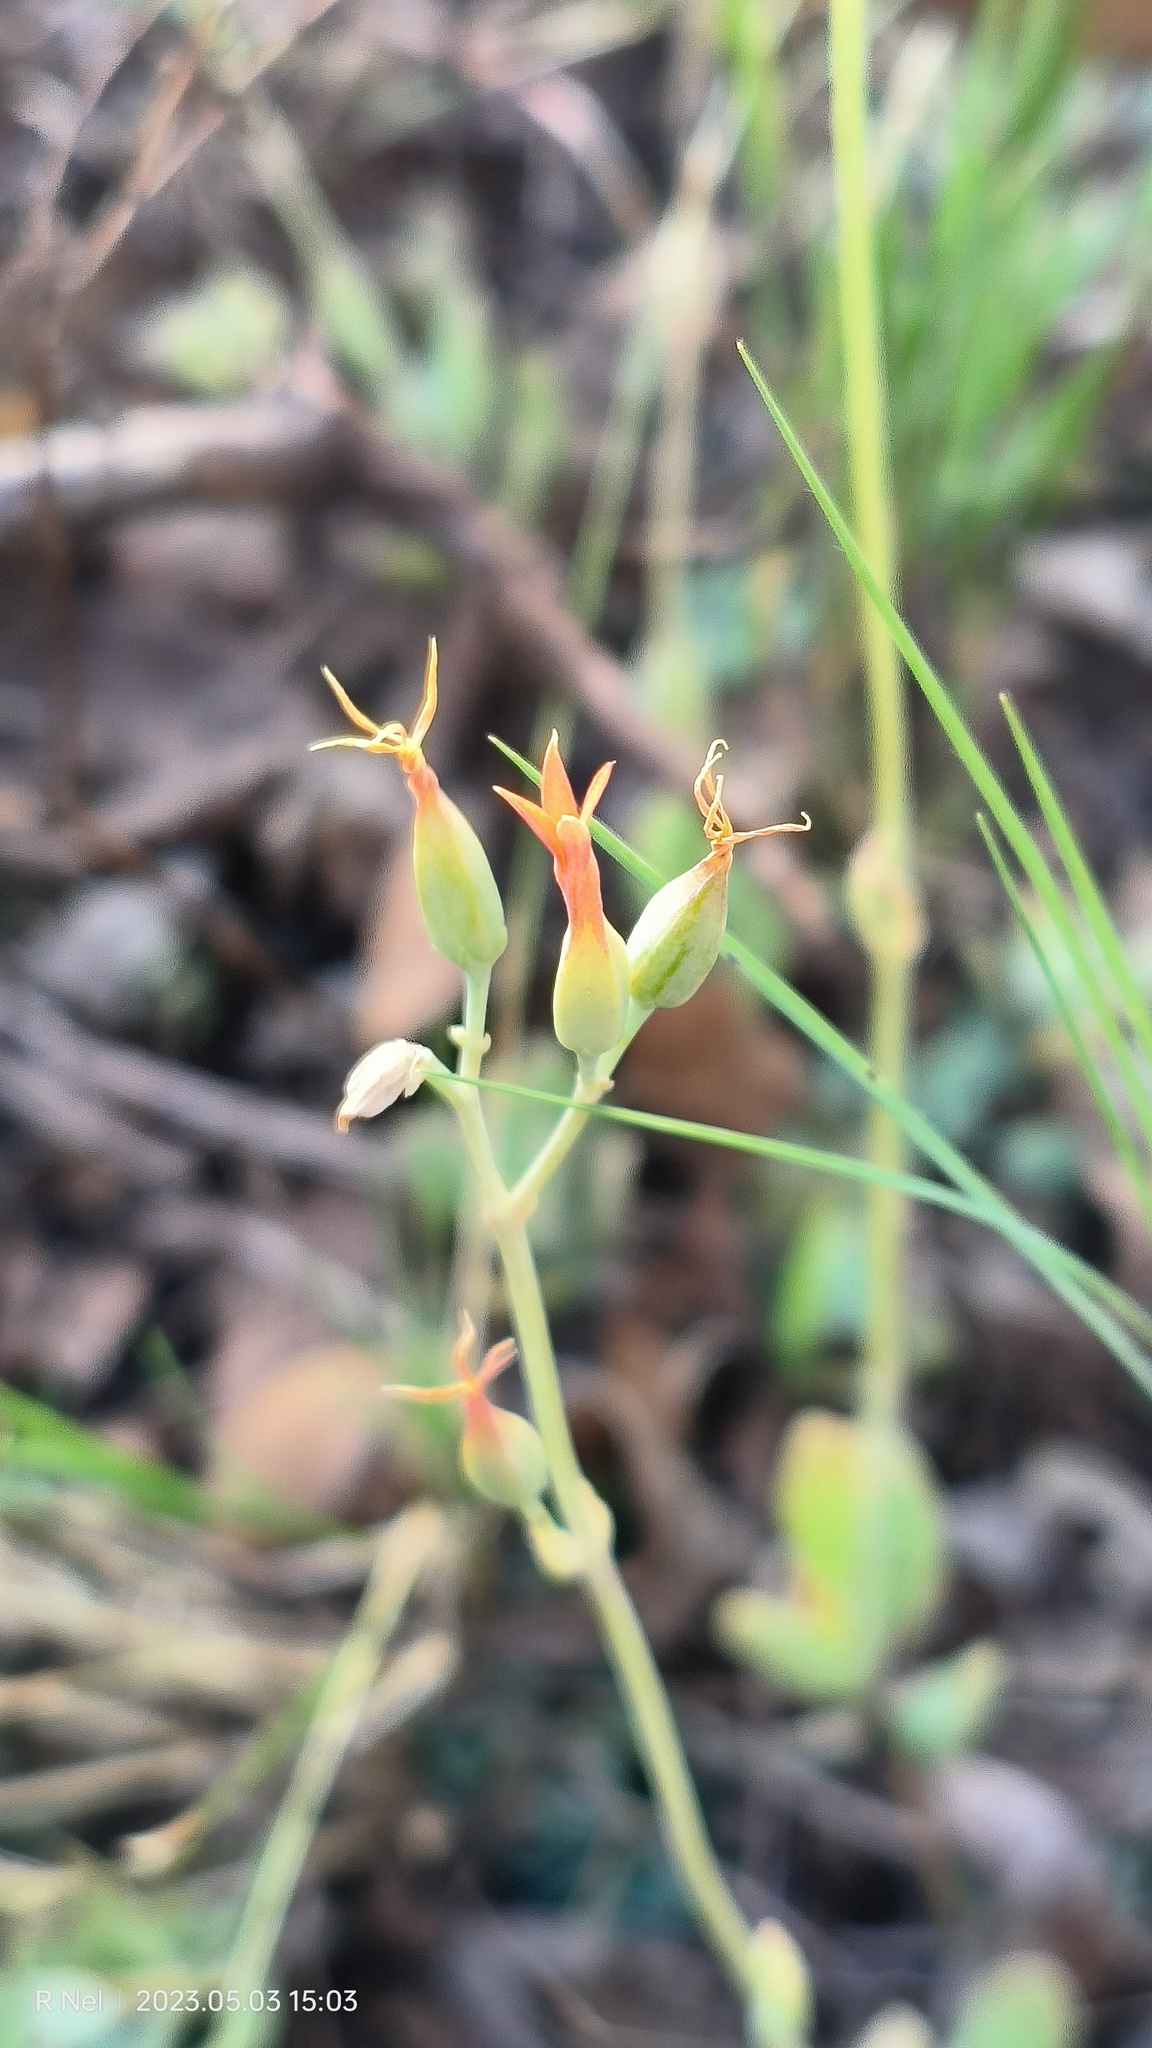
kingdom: Plantae
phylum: Tracheophyta
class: Magnoliopsida
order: Saxifragales
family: Crassulaceae
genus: Kalanchoe
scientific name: Kalanchoe rotundifolia
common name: Common kalanchoe
